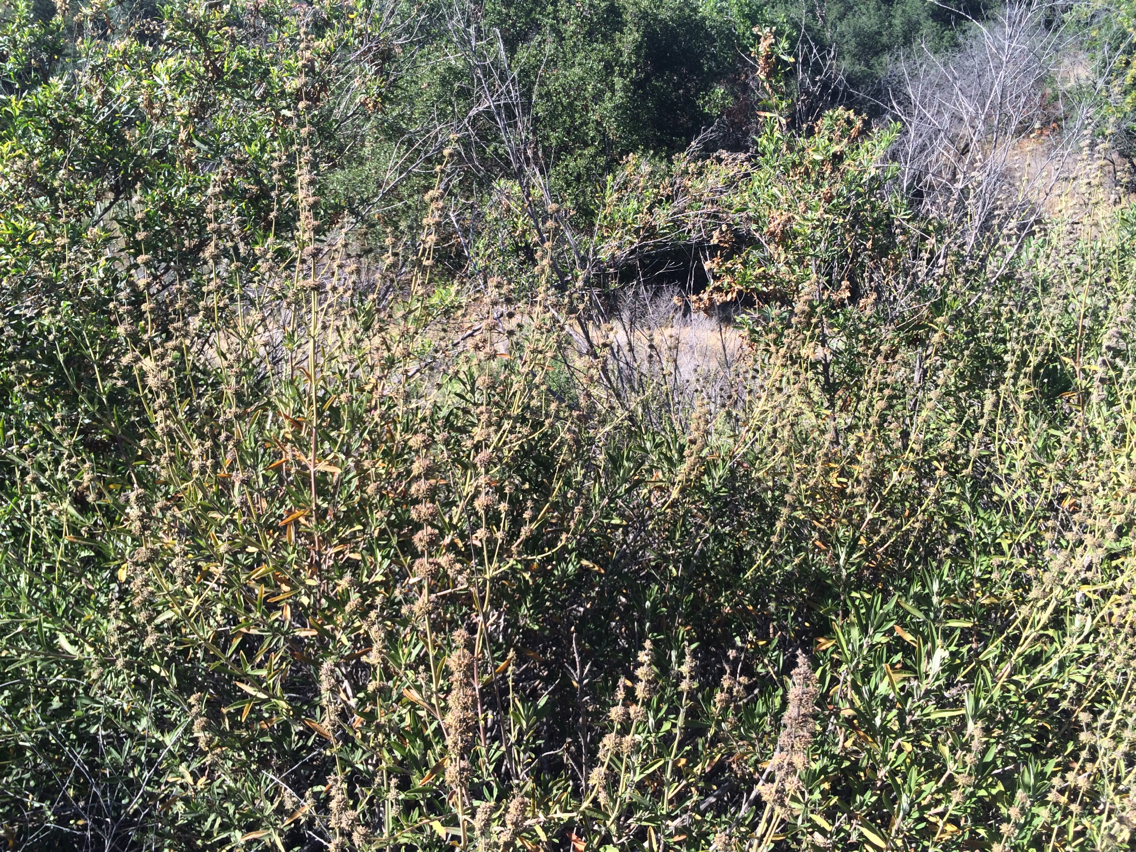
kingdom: Plantae
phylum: Tracheophyta
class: Magnoliopsida
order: Lamiales
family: Lamiaceae
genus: Salvia
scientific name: Salvia mellifera
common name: Black sage
